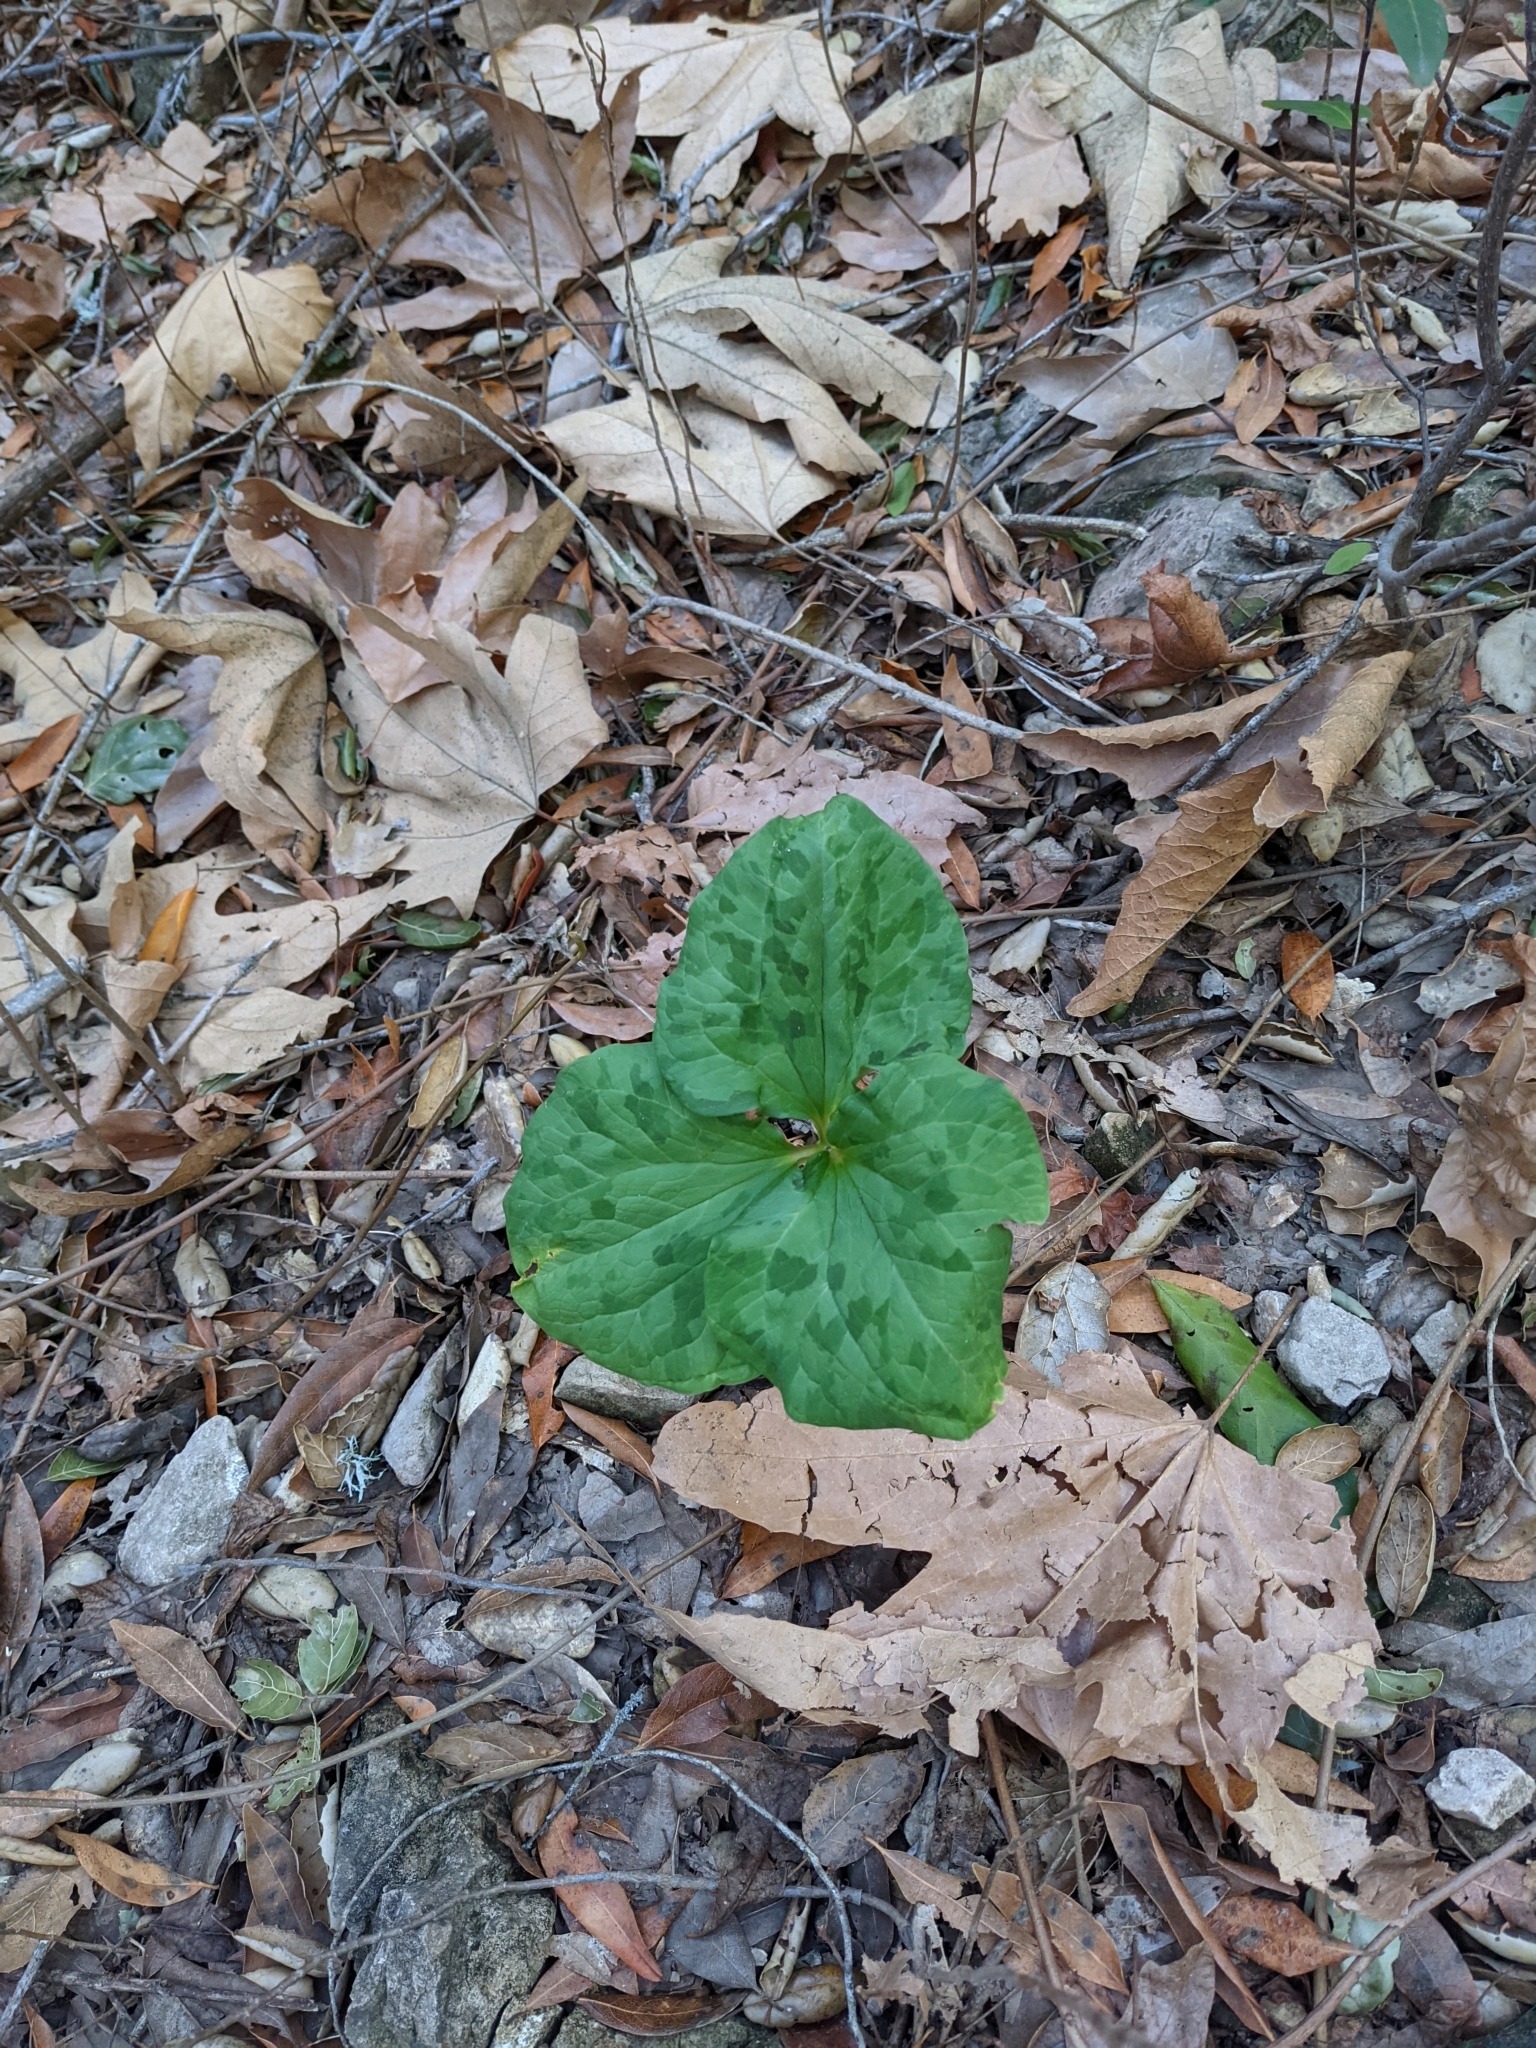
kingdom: Plantae
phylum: Tracheophyta
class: Liliopsida
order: Liliales
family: Melanthiaceae
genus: Trillium
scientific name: Trillium angustipetalum
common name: Narrow-petaled trillium
